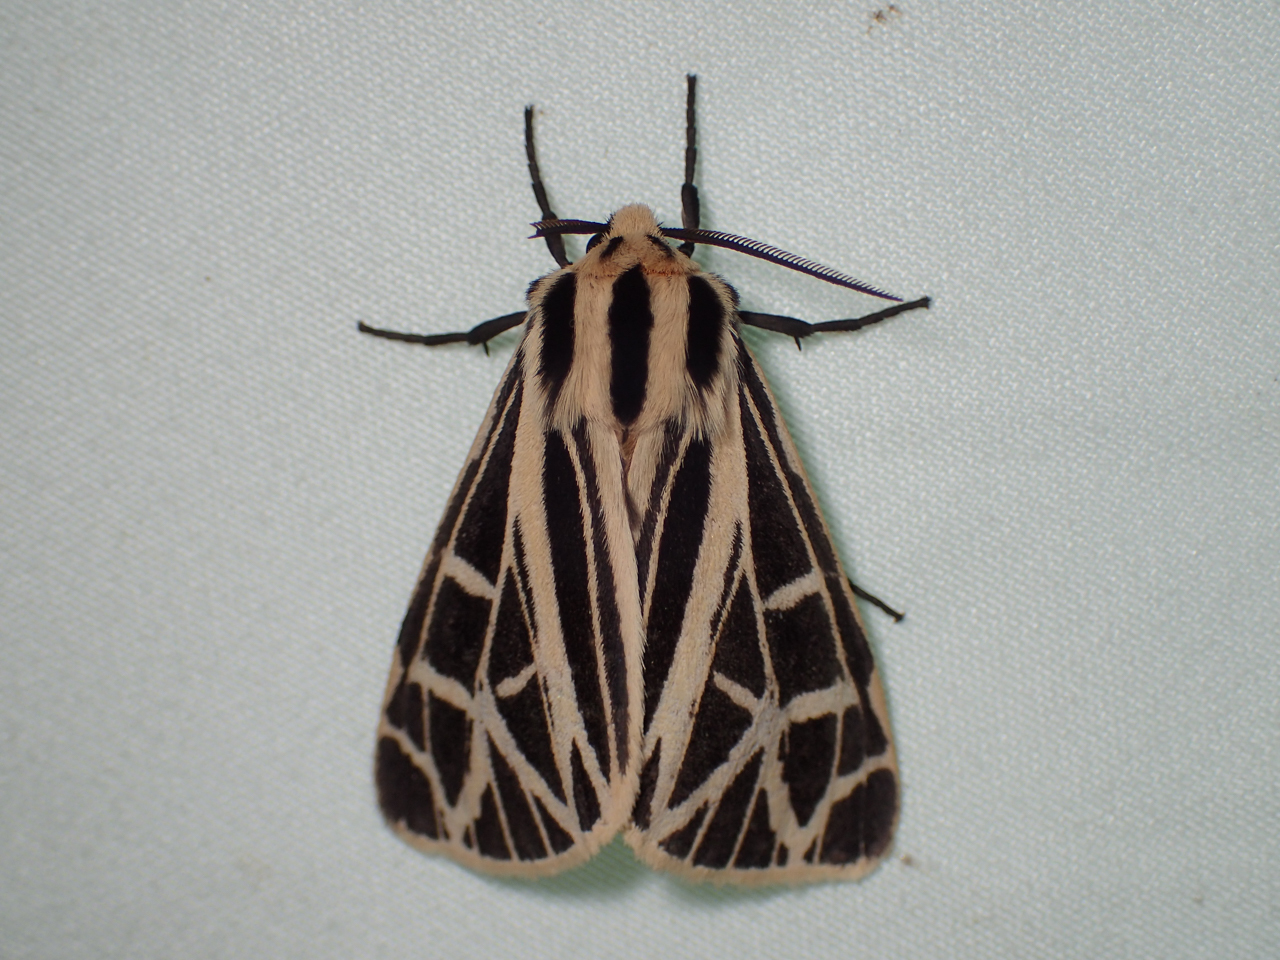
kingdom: Animalia
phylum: Arthropoda
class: Insecta
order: Lepidoptera
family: Erebidae
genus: Apantesis
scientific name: Apantesis
